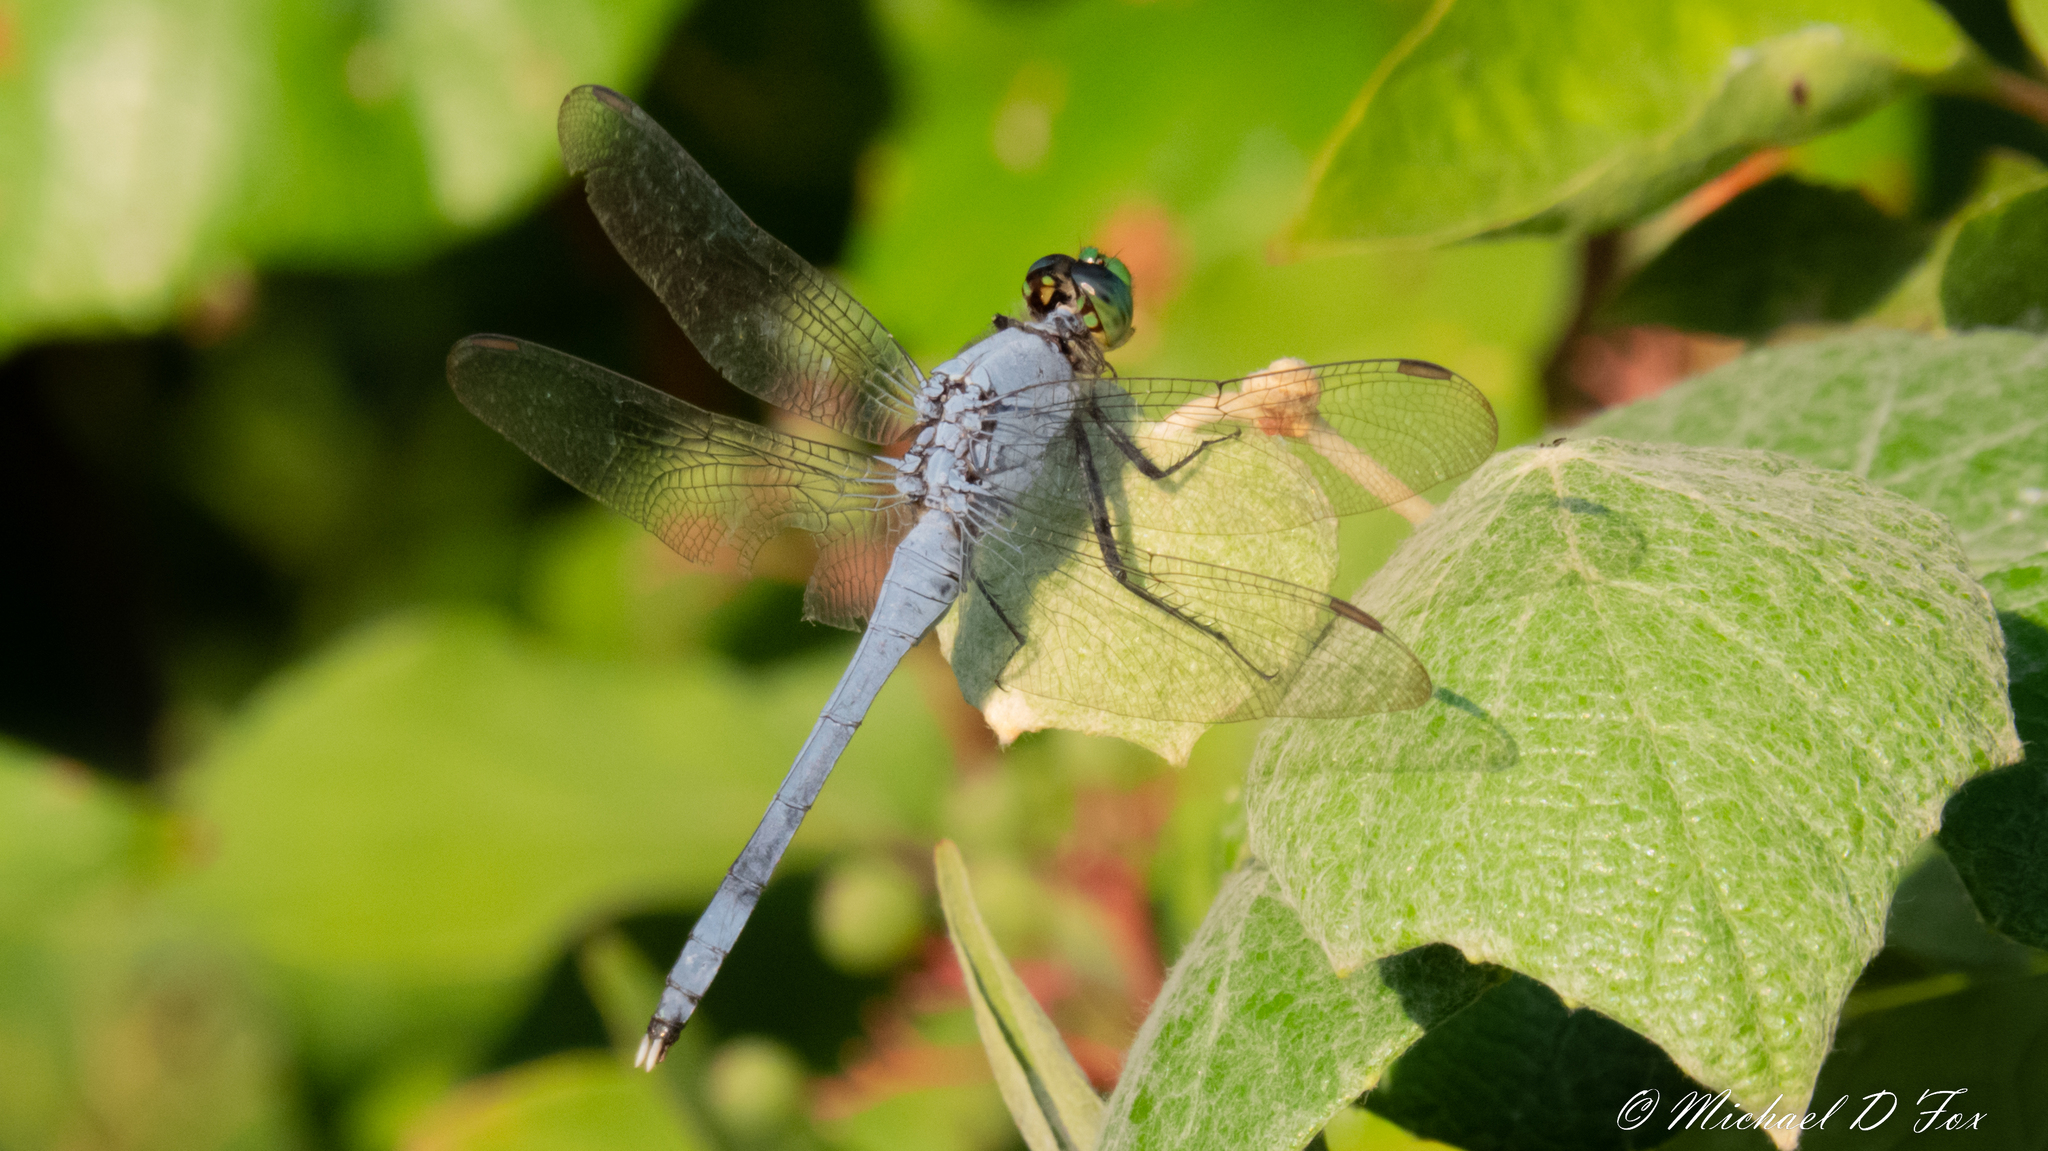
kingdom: Animalia
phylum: Arthropoda
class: Insecta
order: Odonata
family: Libellulidae
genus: Erythemis
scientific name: Erythemis simplicicollis
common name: Eastern pondhawk
